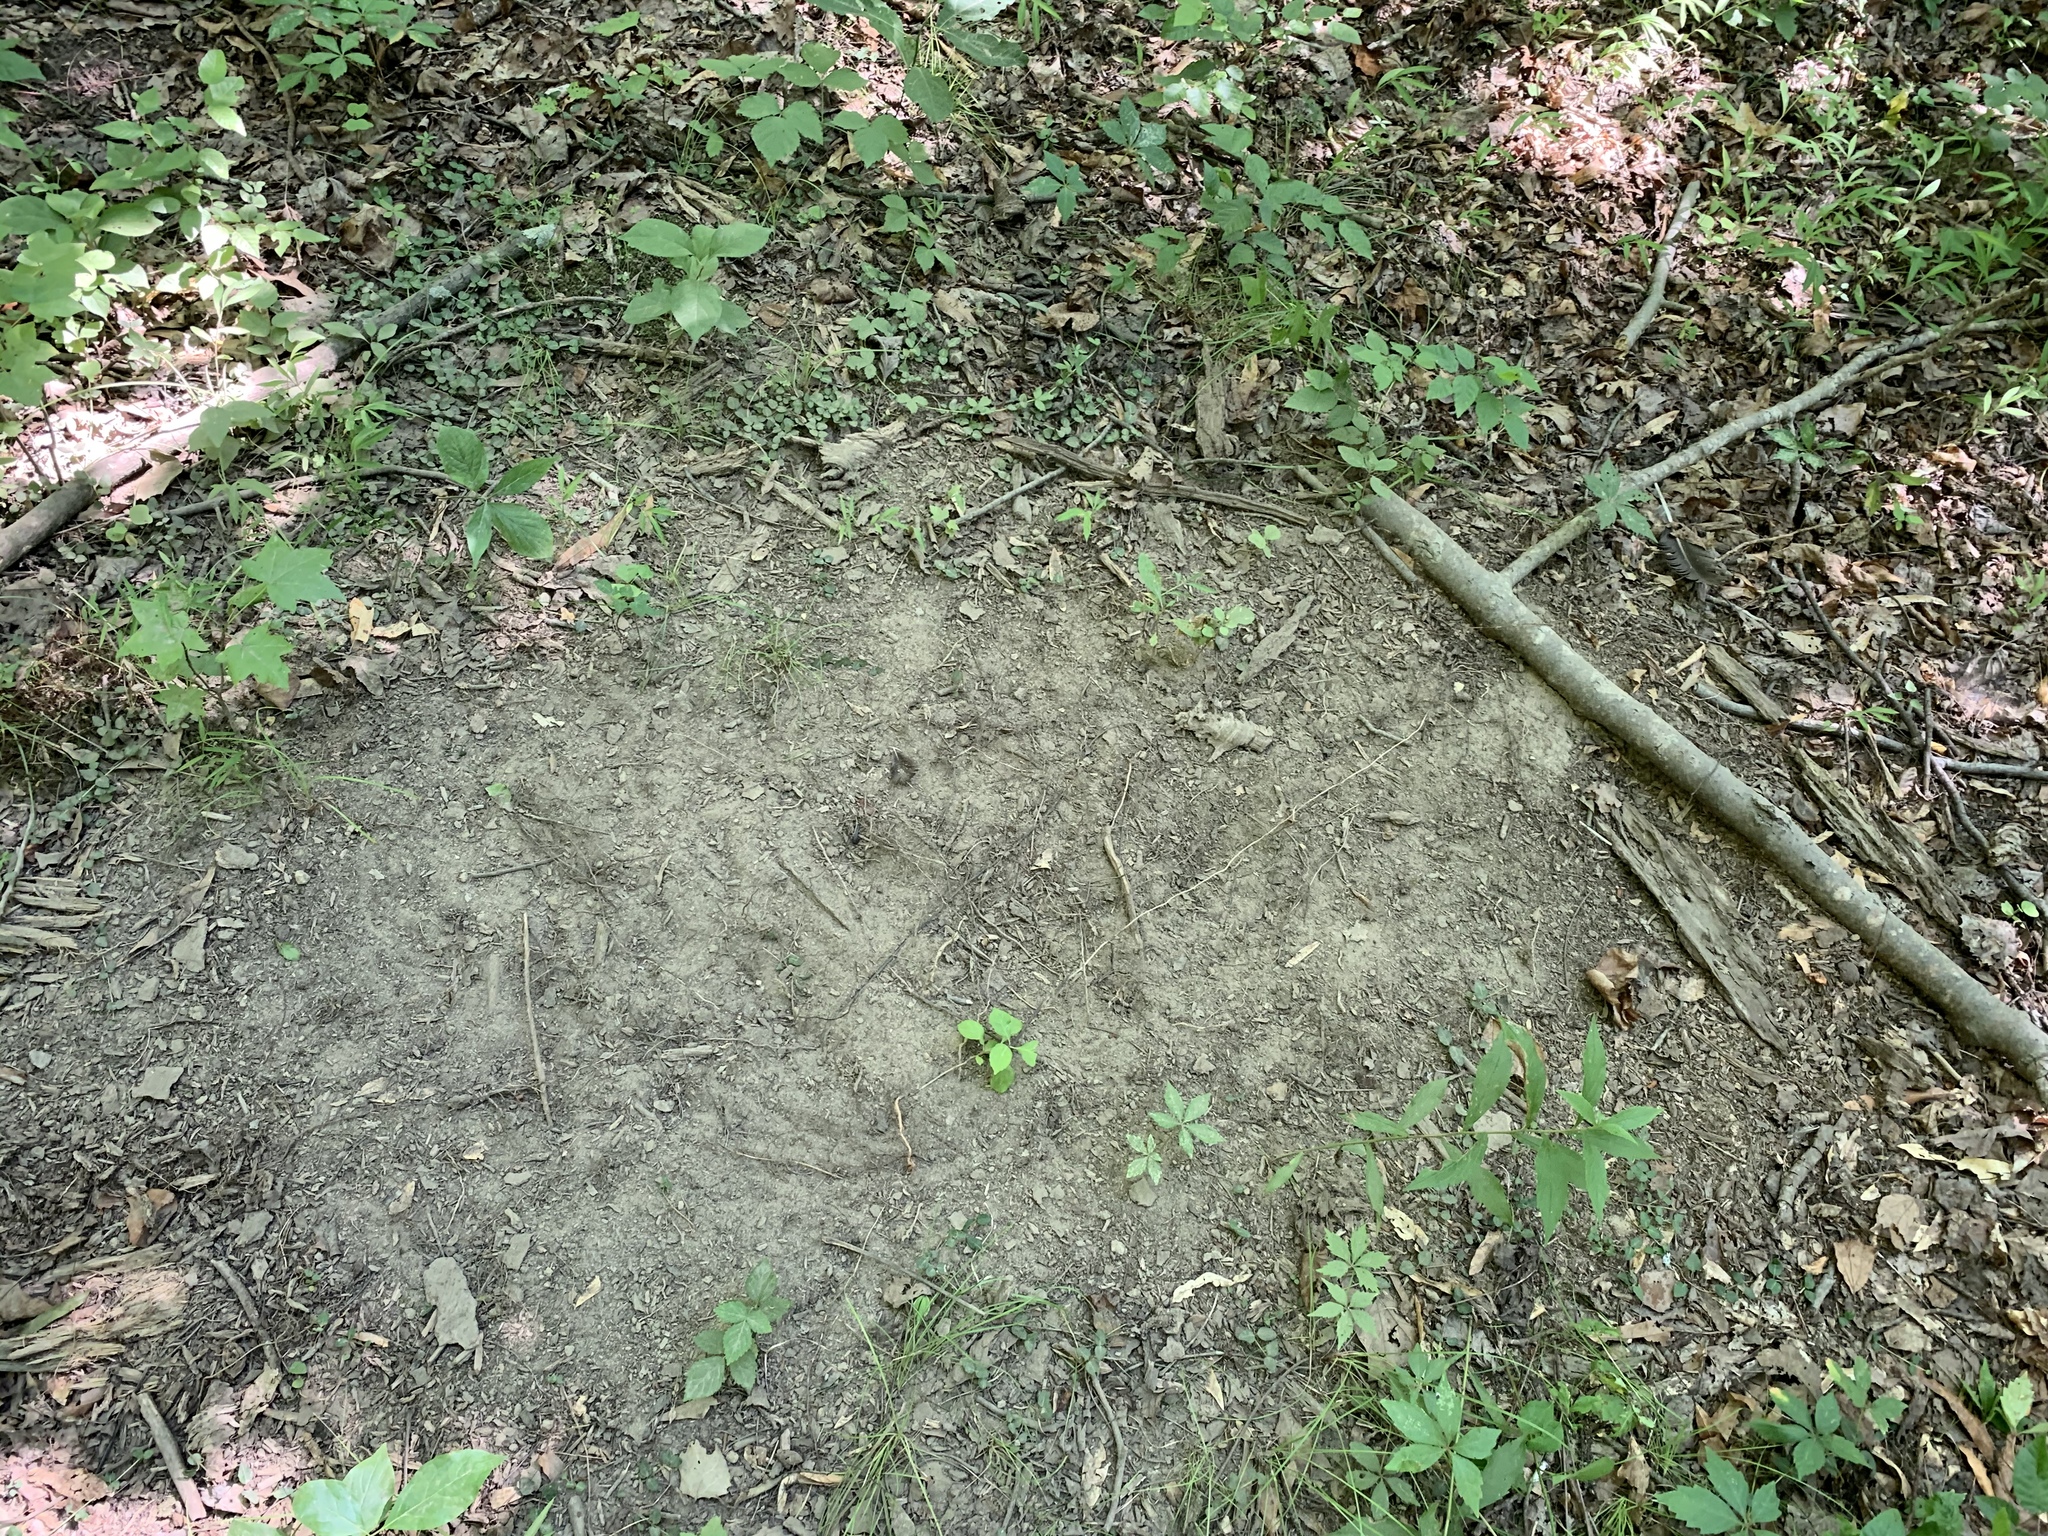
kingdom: Animalia
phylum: Chordata
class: Aves
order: Galliformes
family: Phasianidae
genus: Meleagris
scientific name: Meleagris gallopavo
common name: Wild turkey
